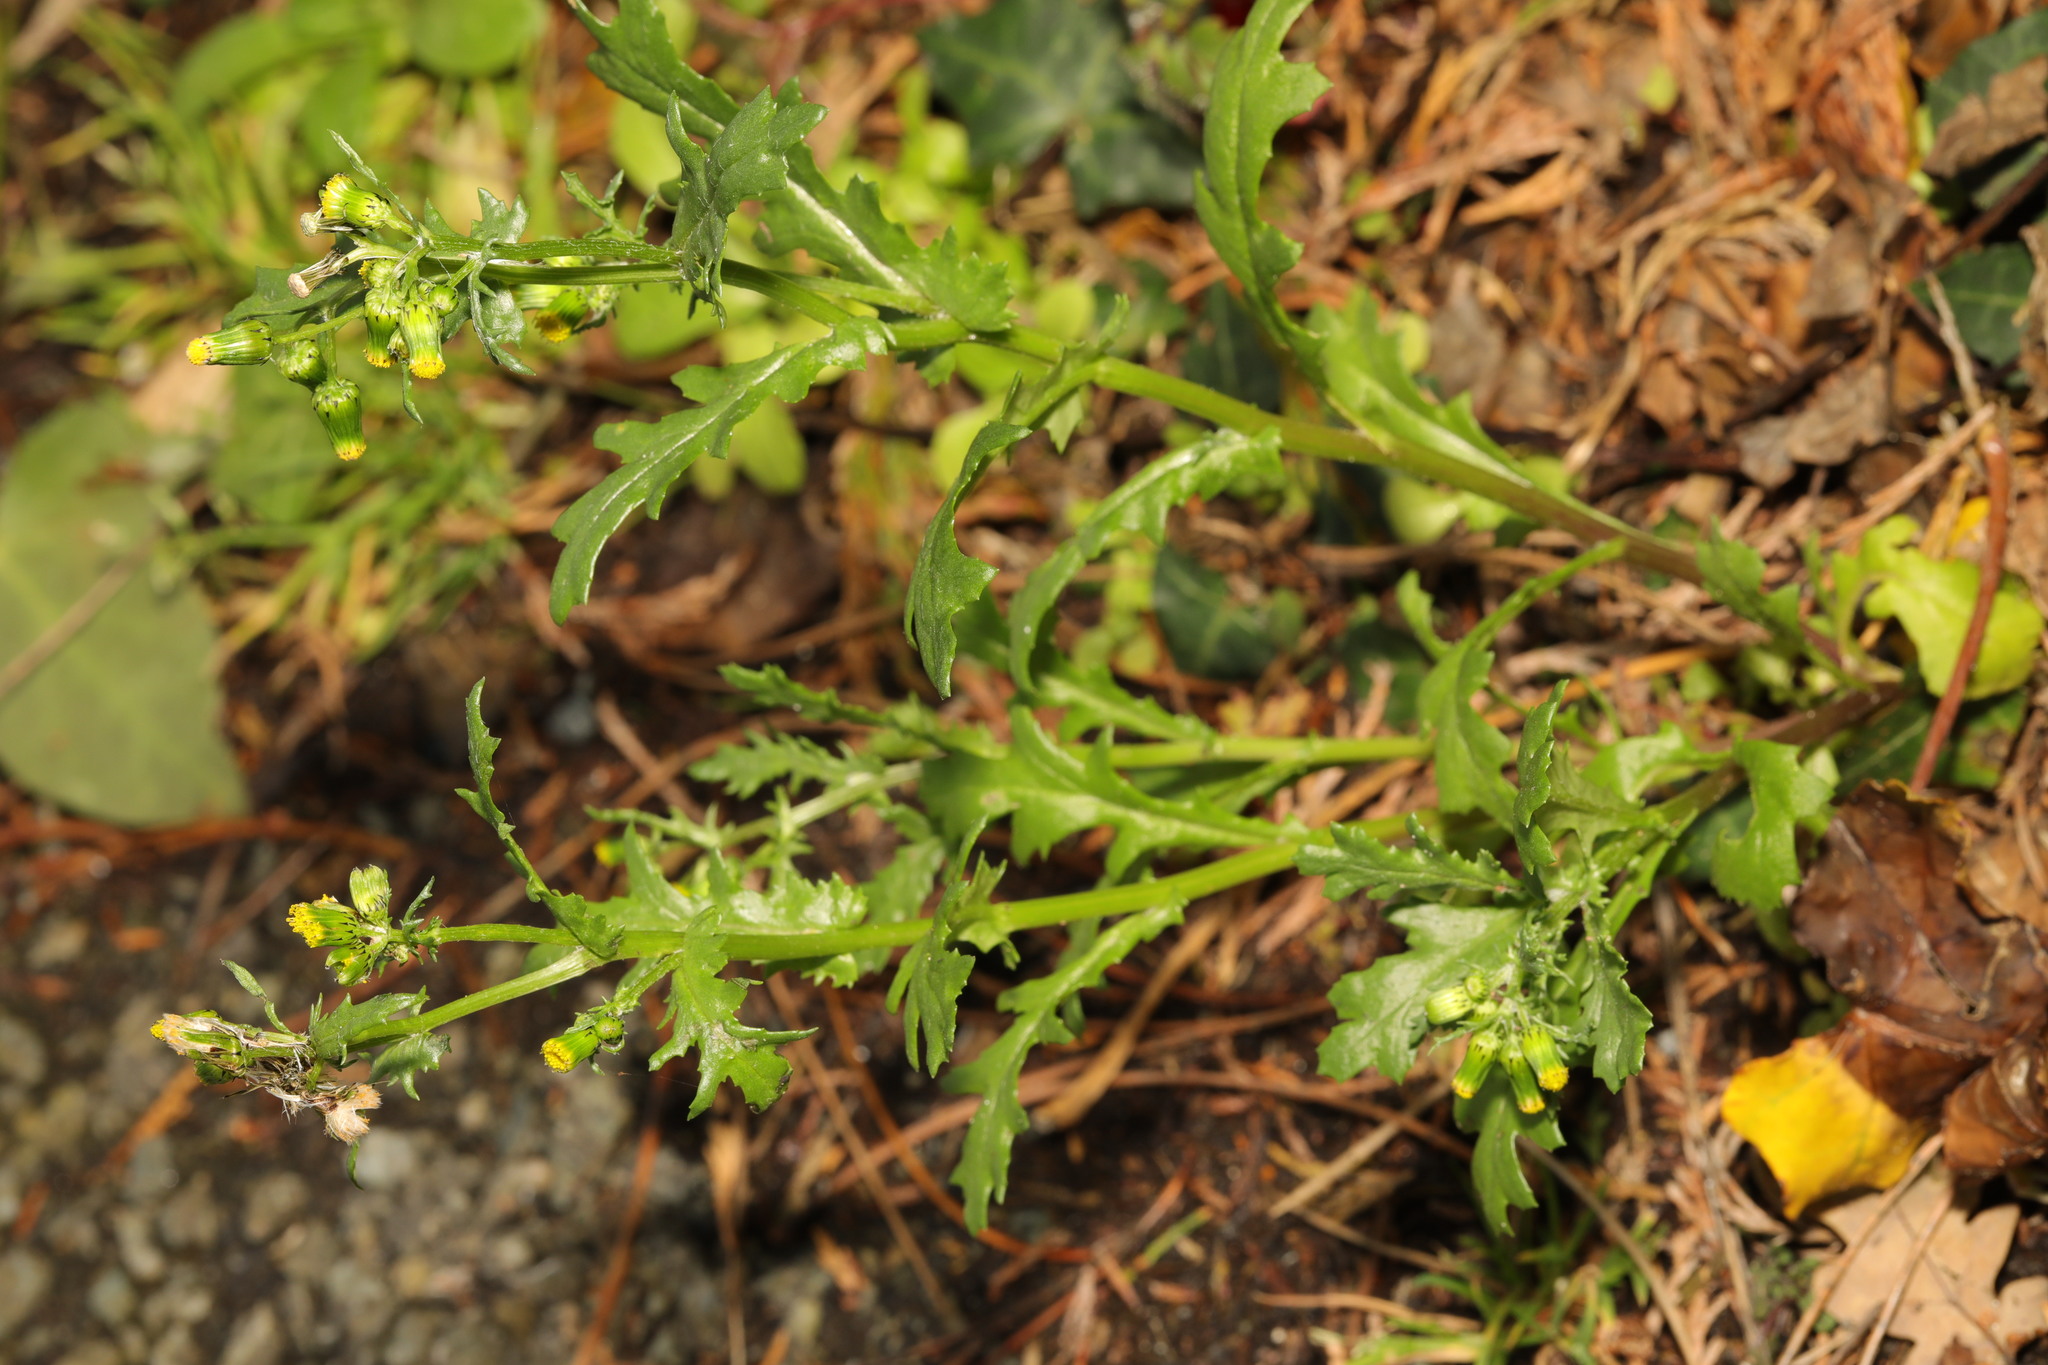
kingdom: Plantae
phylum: Tracheophyta
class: Magnoliopsida
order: Asterales
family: Asteraceae
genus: Senecio
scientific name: Senecio vulgaris
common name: Old-man-in-the-spring
